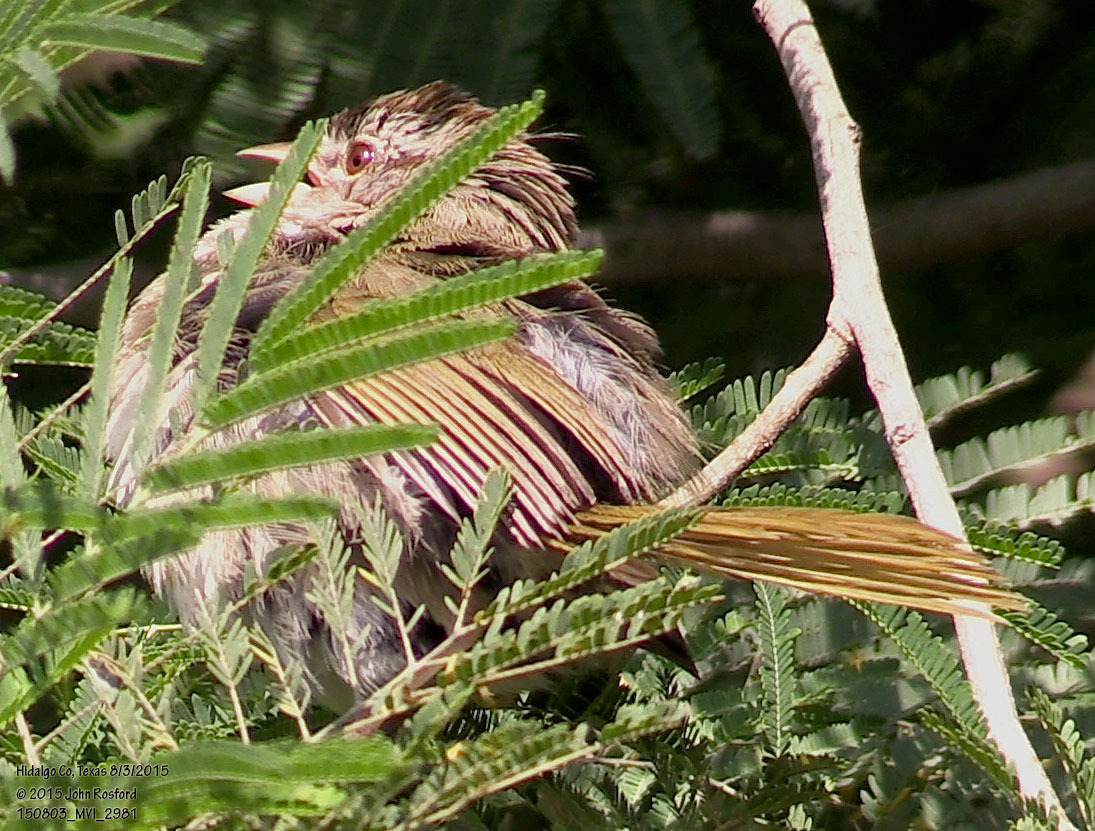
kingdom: Animalia
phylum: Chordata
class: Aves
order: Passeriformes
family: Passerellidae
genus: Arremonops
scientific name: Arremonops rufivirgatus
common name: Olive sparrow
